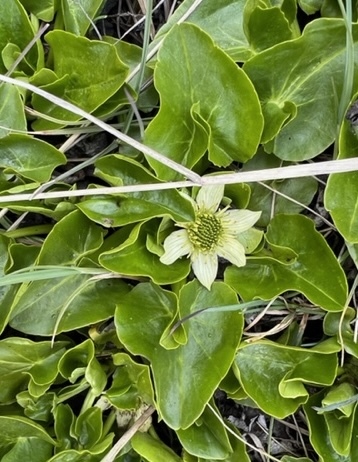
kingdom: Plantae
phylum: Tracheophyta
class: Magnoliopsida
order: Ranunculales
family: Ranunculaceae
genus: Caltha
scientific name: Caltha sagittata
